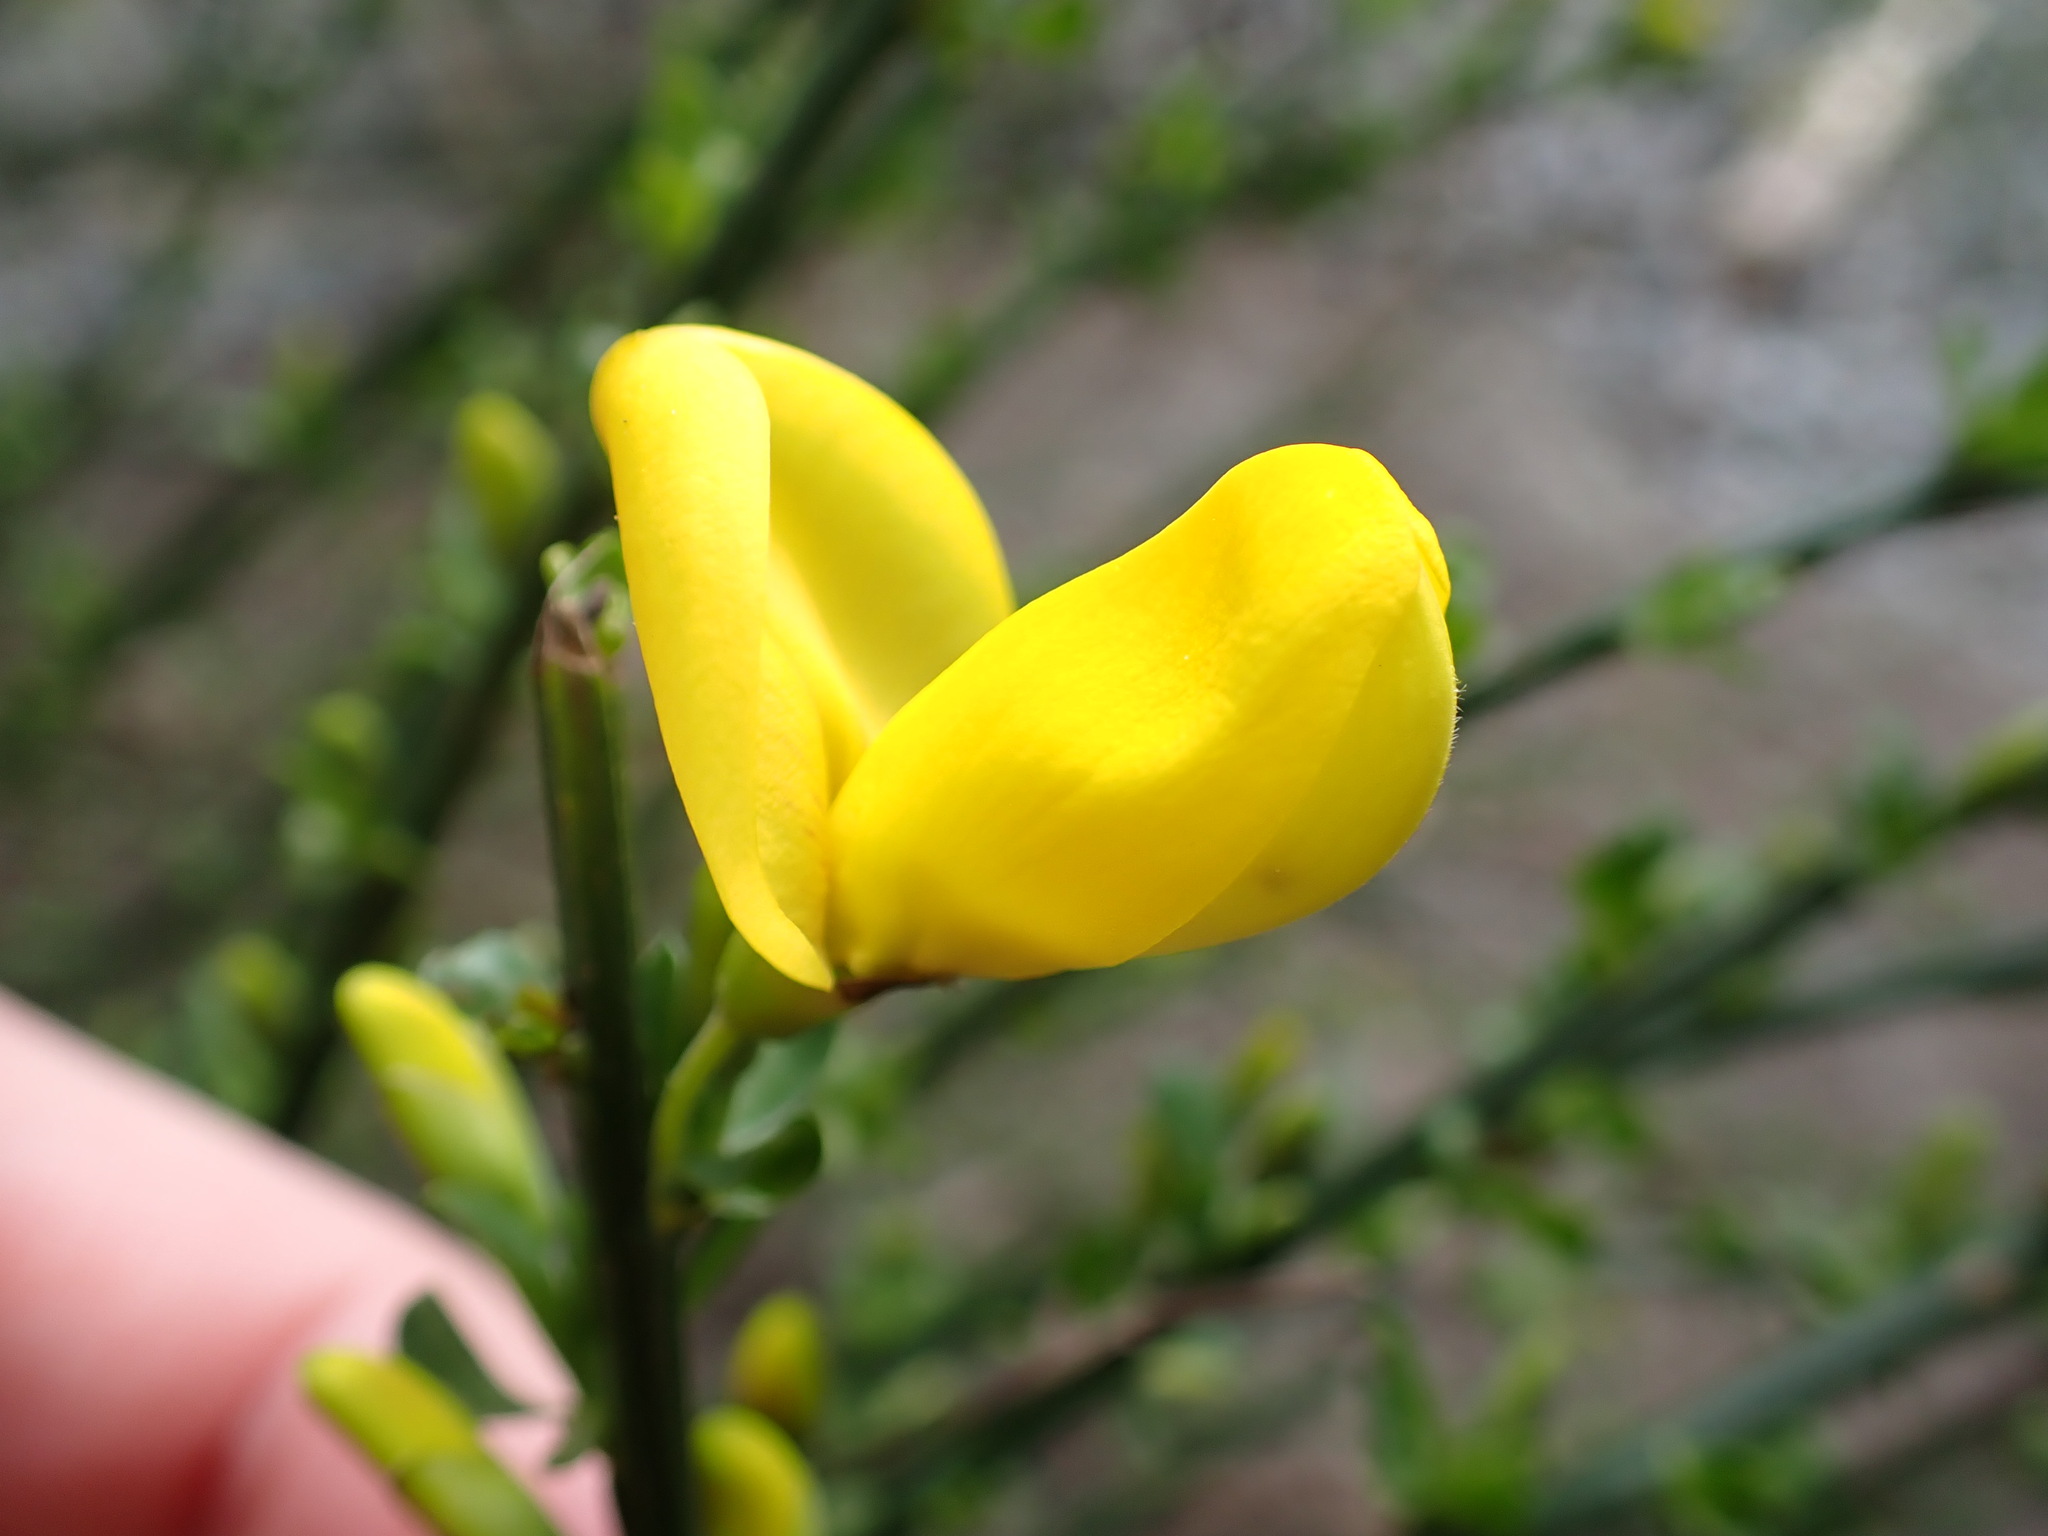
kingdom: Plantae
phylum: Tracheophyta
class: Magnoliopsida
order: Fabales
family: Fabaceae
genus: Cytisus
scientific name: Cytisus scoparius
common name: Scotch broom
